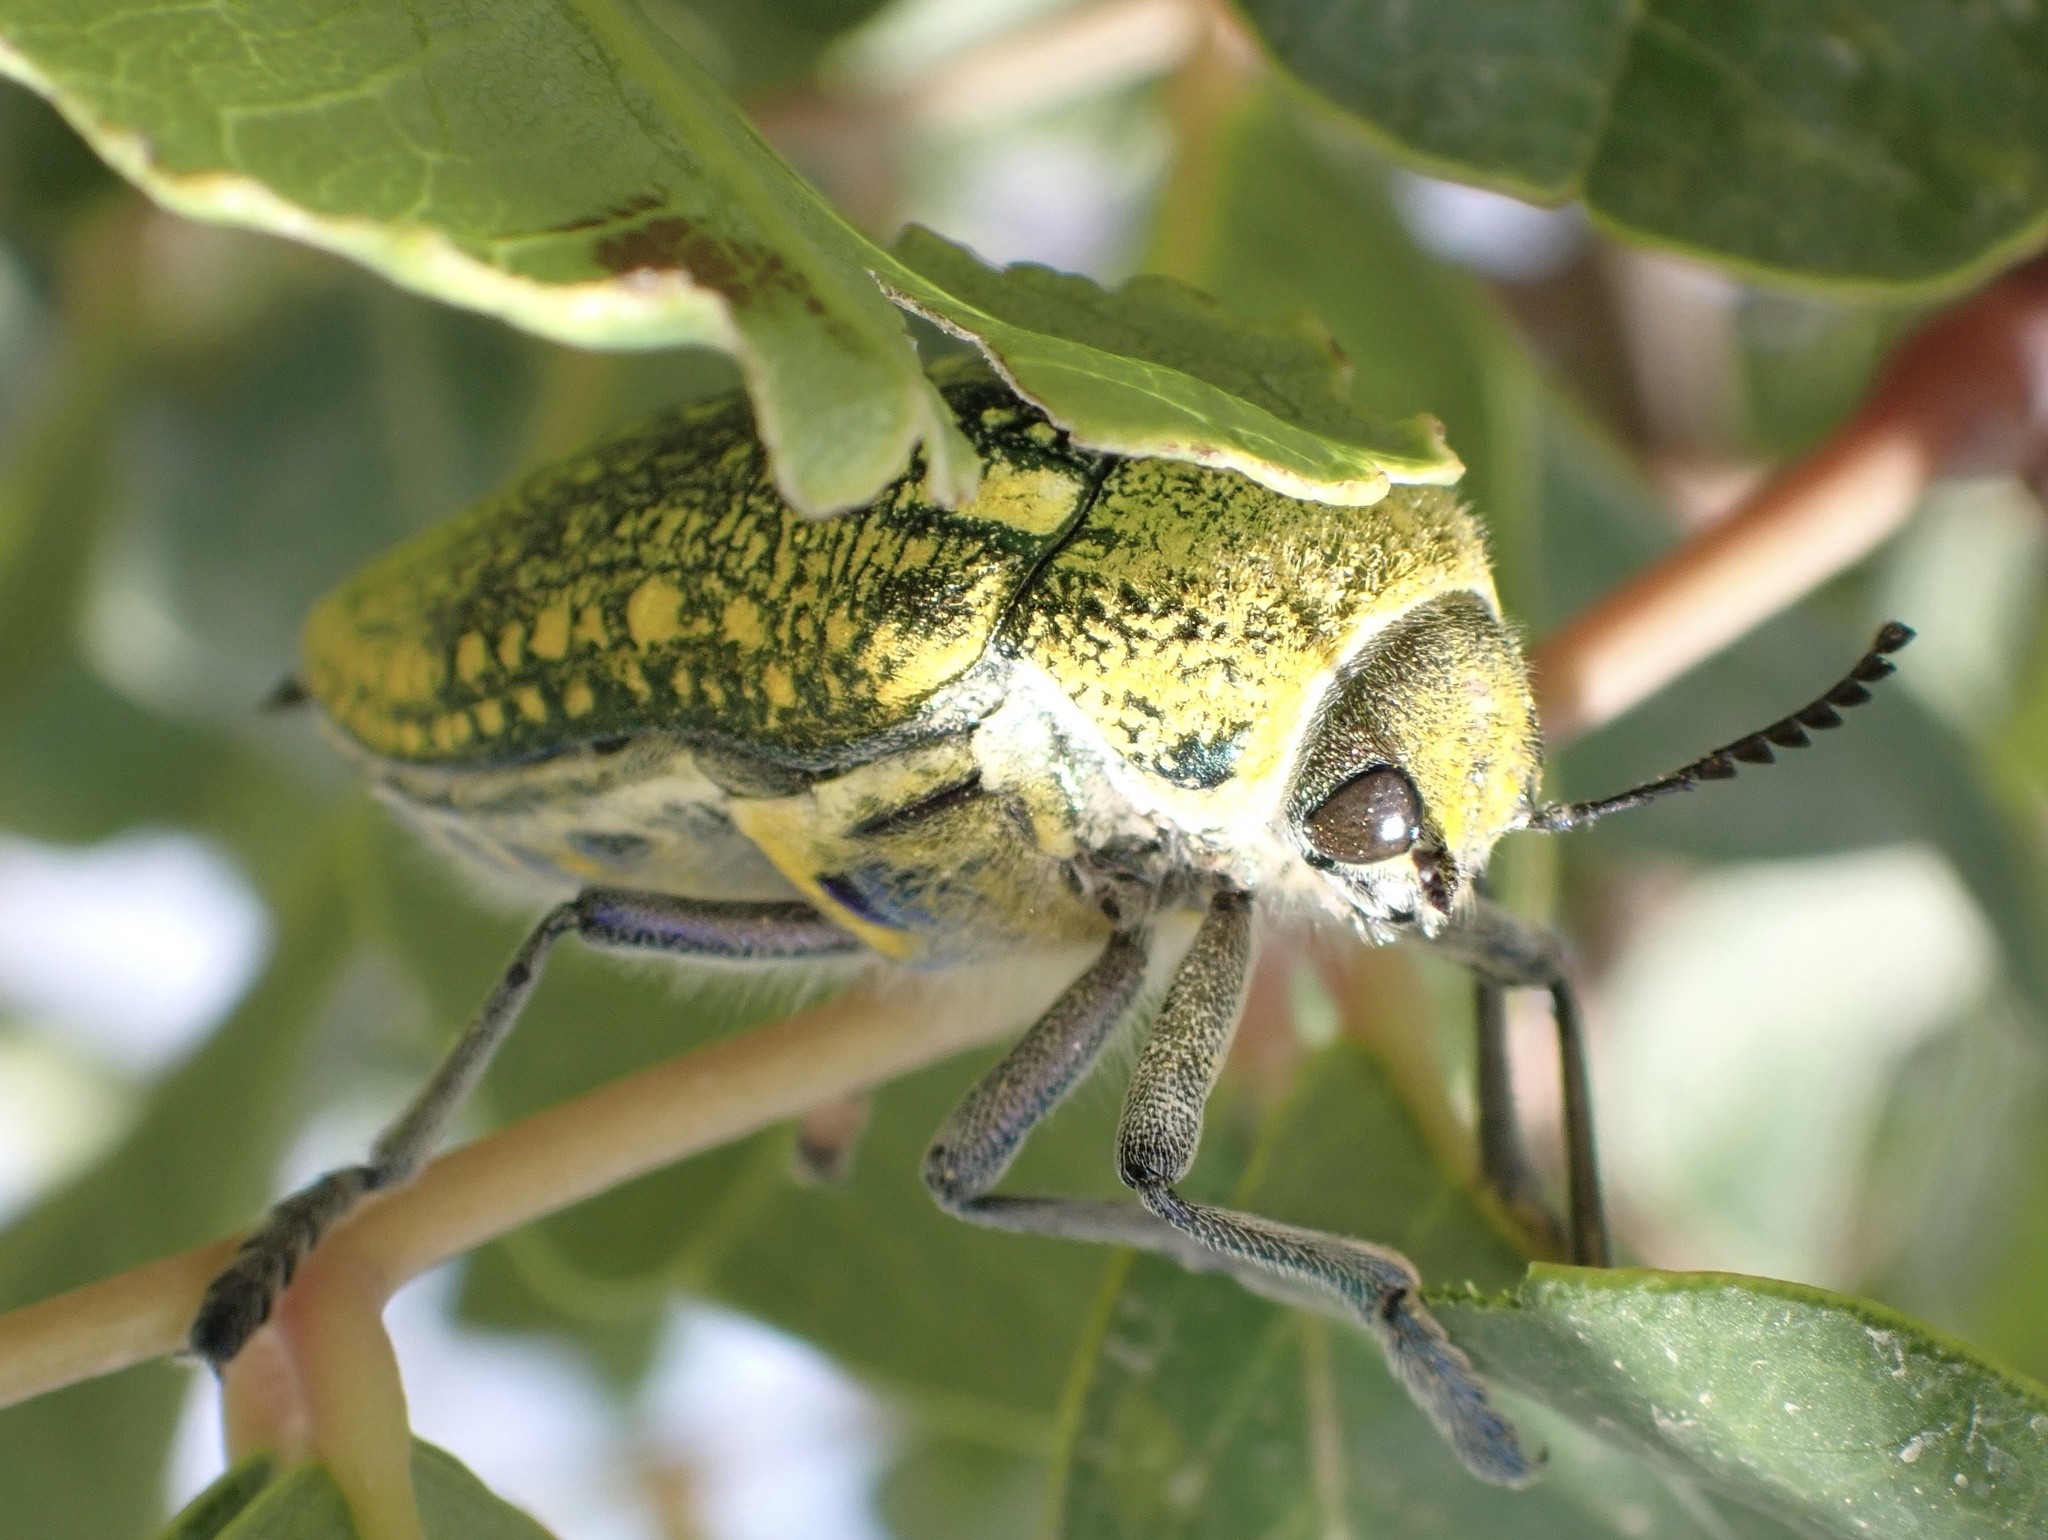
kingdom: Animalia
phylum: Arthropoda
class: Insecta
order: Coleoptera
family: Buprestidae
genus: Julodis
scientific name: Julodis aequinoctialis
